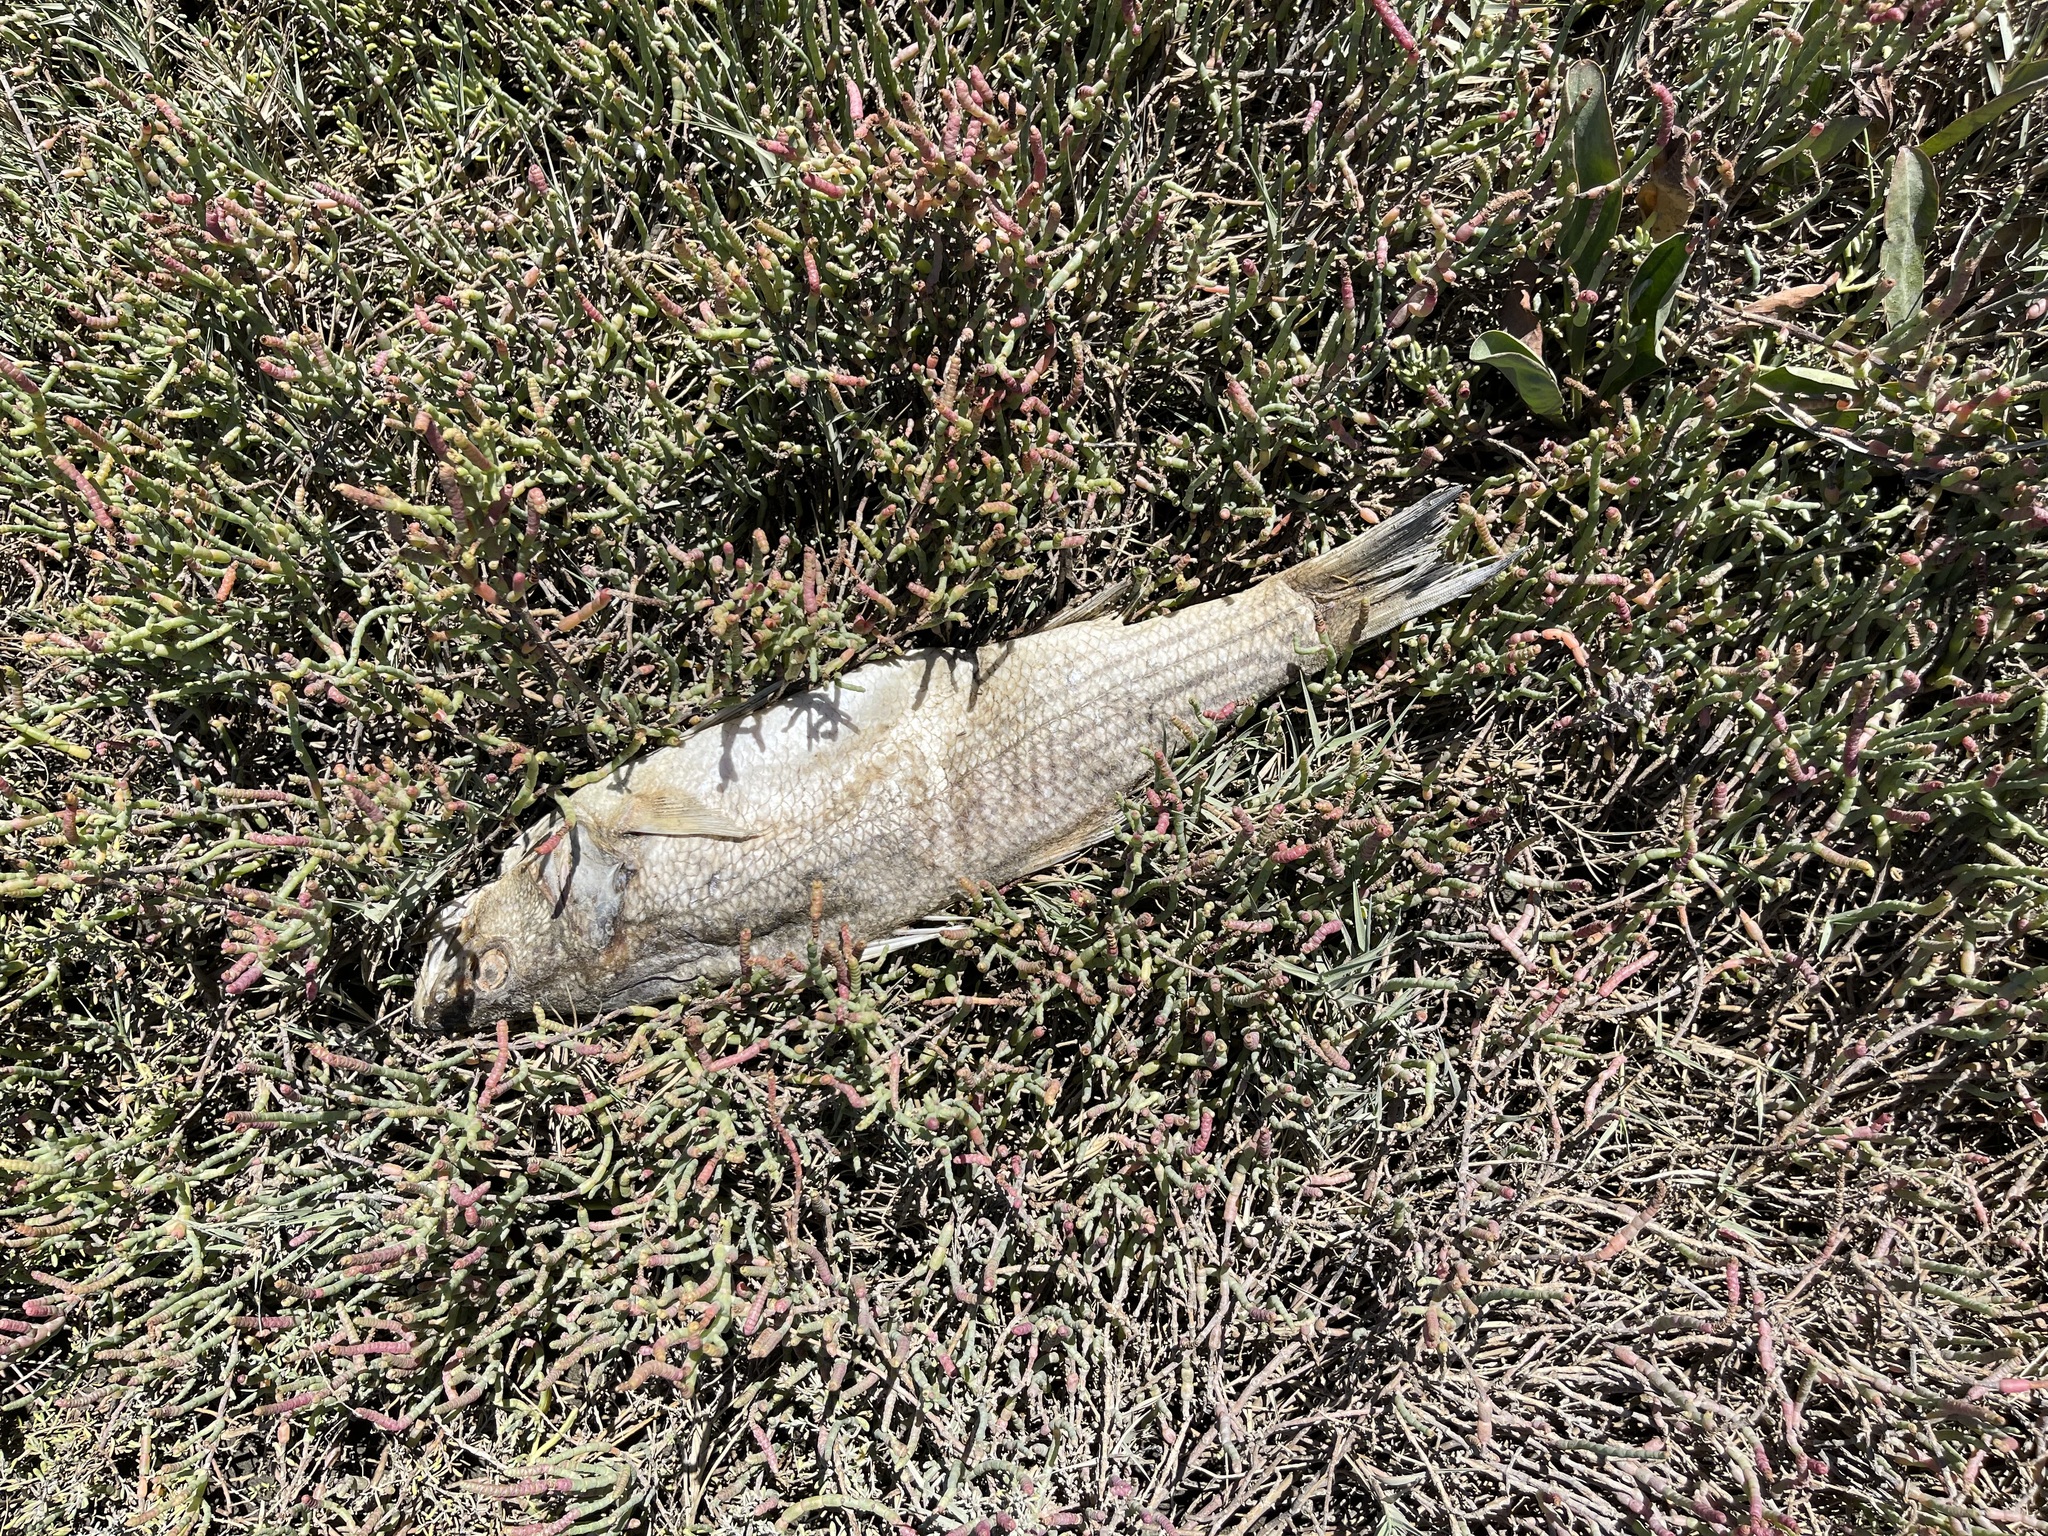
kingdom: Animalia
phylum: Chordata
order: Perciformes
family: Moronidae
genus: Morone
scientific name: Morone saxatilis
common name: Striped bass
